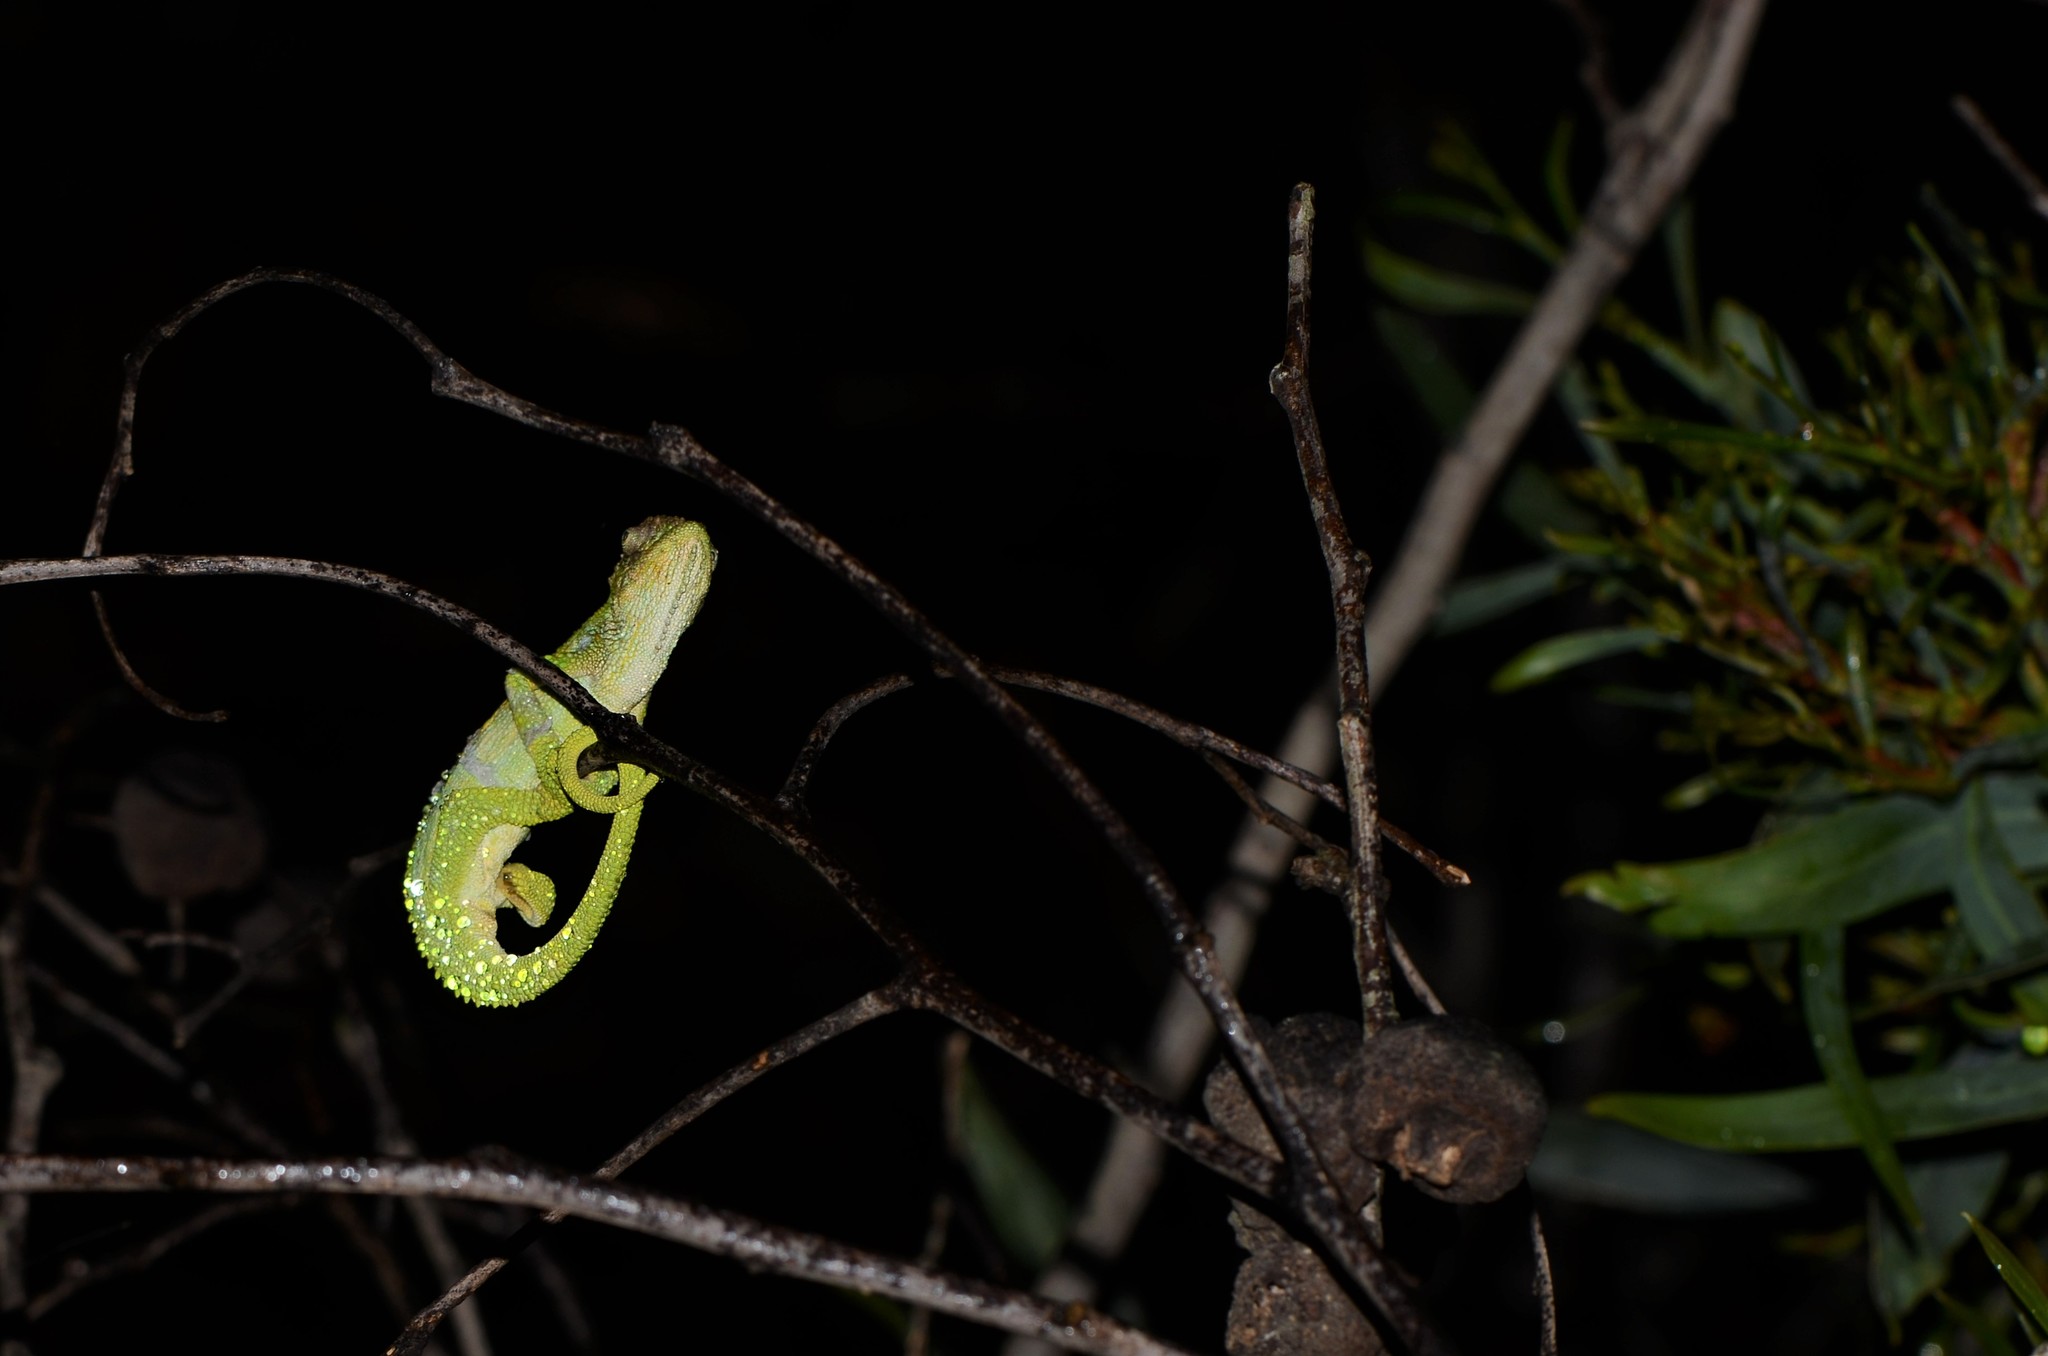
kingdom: Animalia
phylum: Chordata
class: Squamata
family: Chamaeleonidae
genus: Bradypodion
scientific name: Bradypodion pumilum
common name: Cape dwarf chameleon
